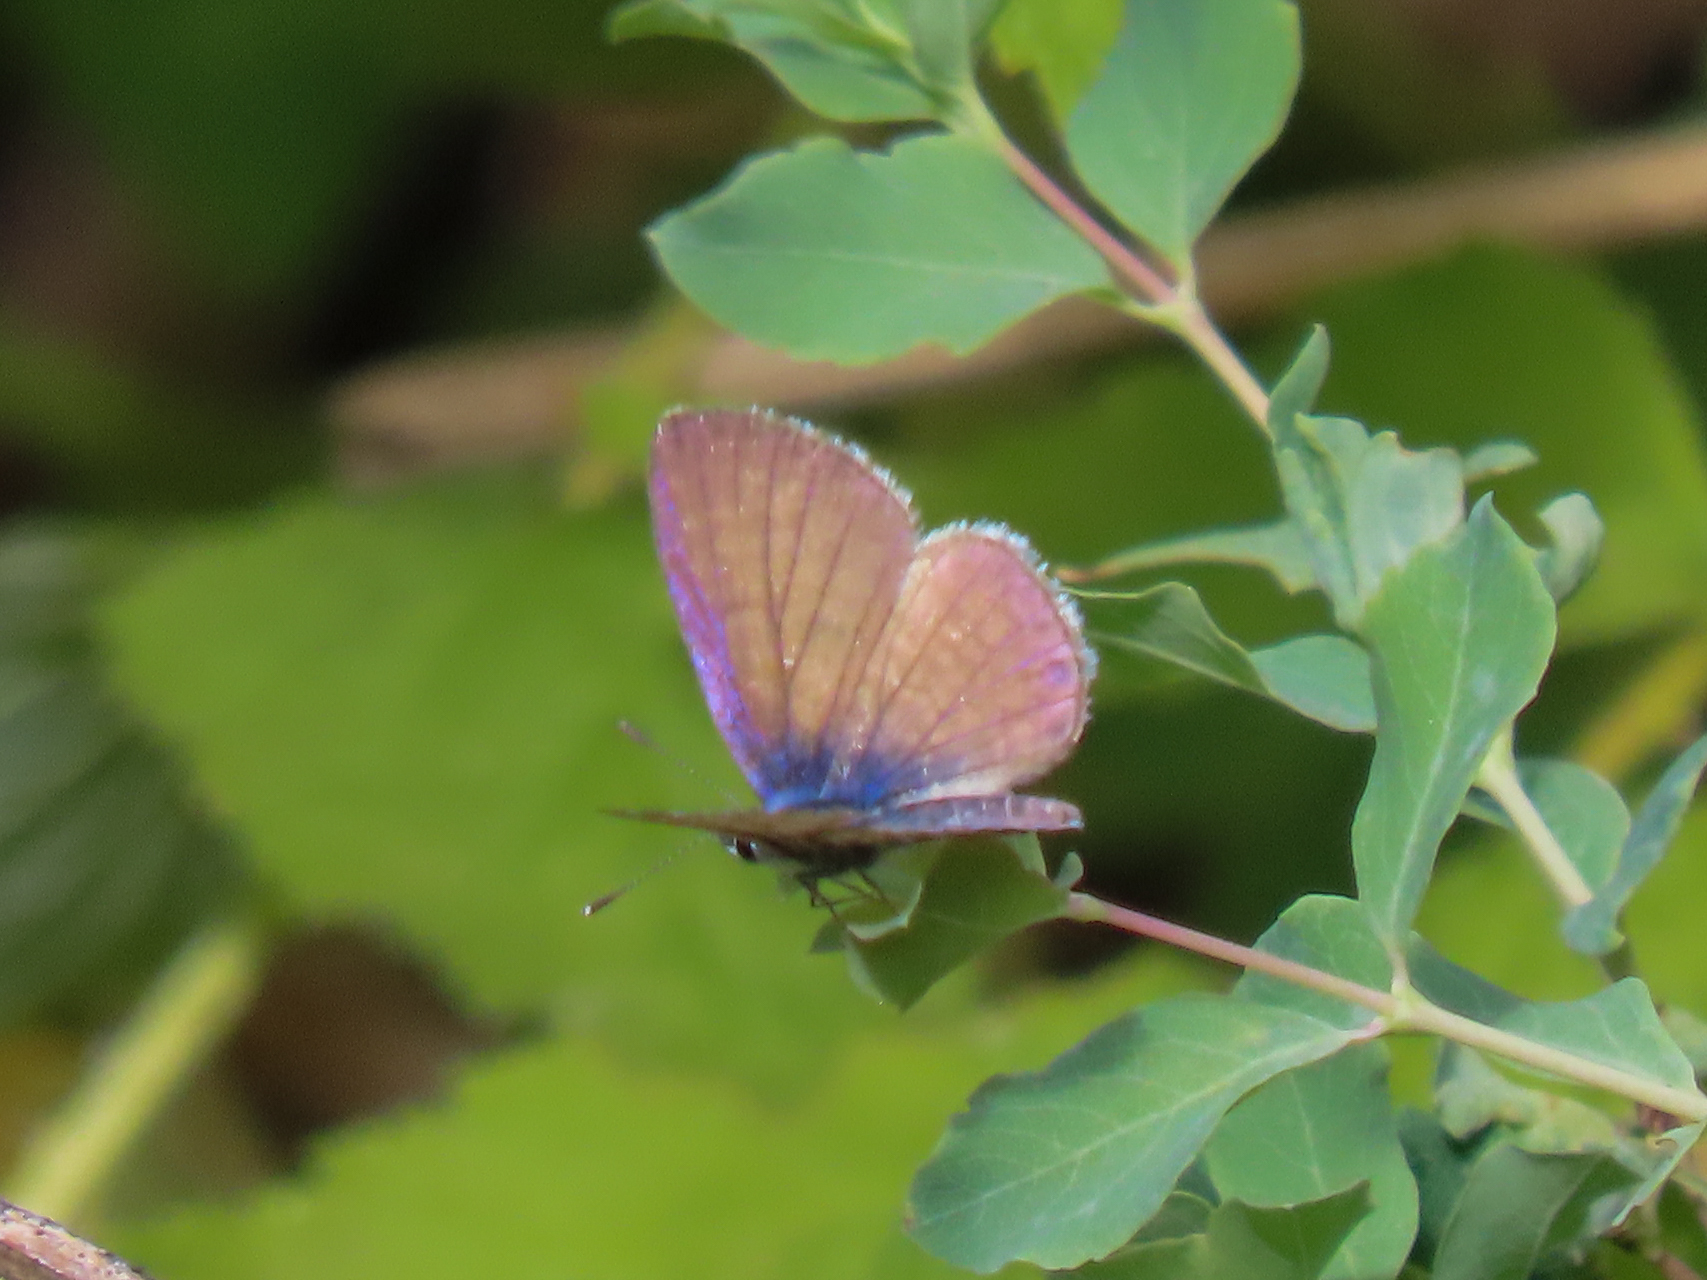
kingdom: Animalia
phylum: Arthropoda
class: Insecta
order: Lepidoptera
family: Lycaenidae
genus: Leptotes
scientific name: Leptotes marina
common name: Marine blue
